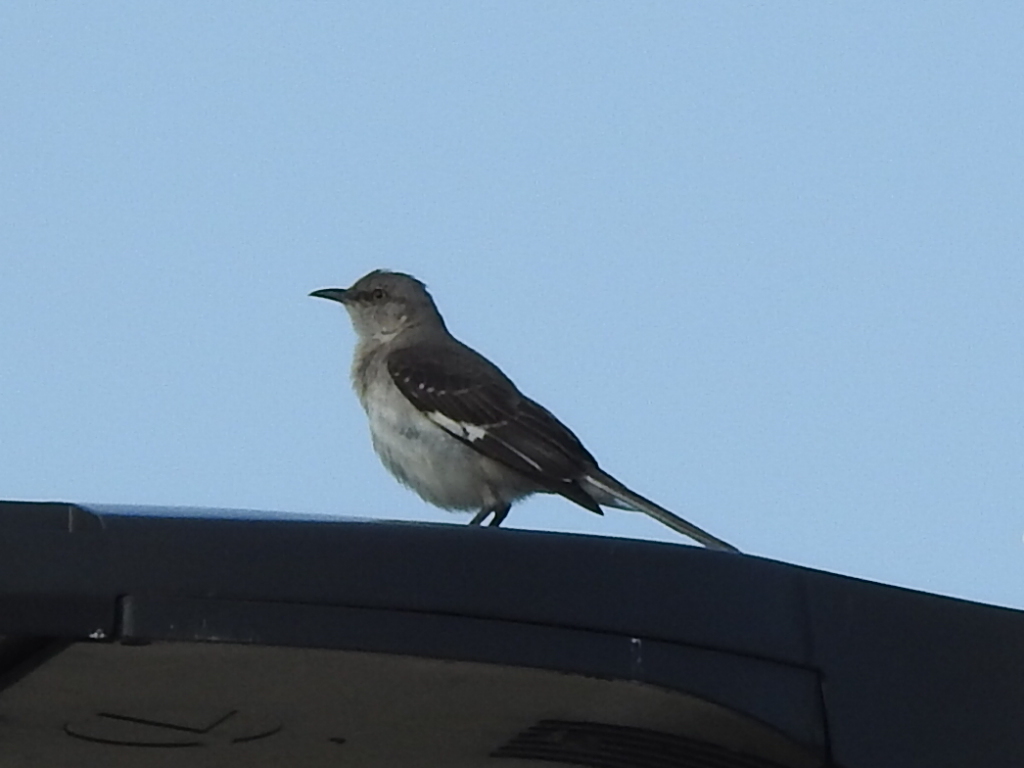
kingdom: Animalia
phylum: Chordata
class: Aves
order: Passeriformes
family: Mimidae
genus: Mimus
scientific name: Mimus polyglottos
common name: Northern mockingbird
